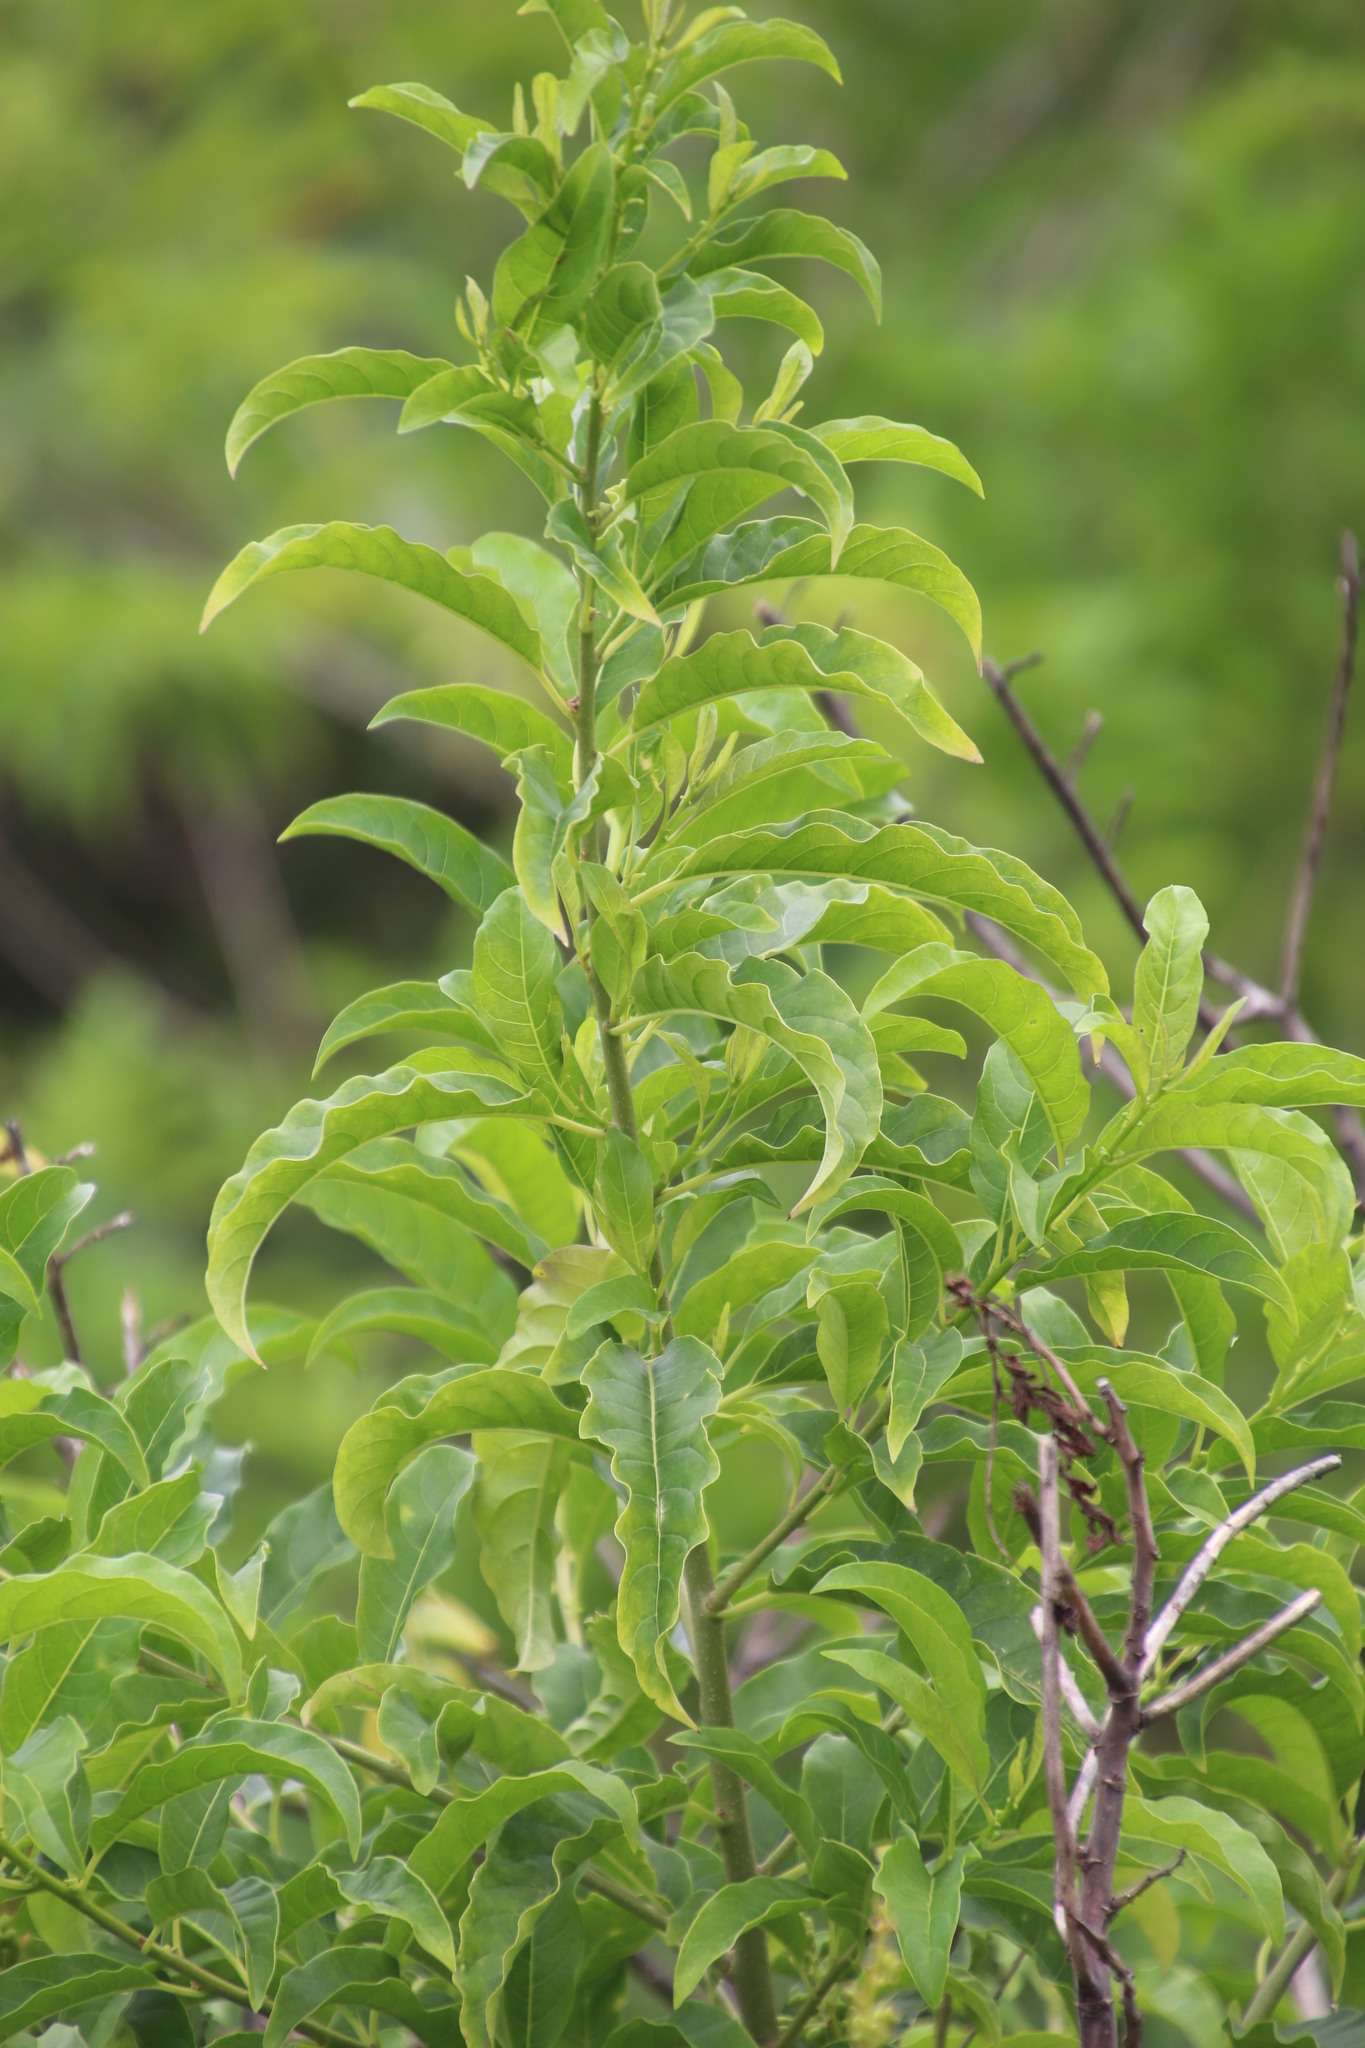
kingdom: Plantae
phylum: Tracheophyta
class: Magnoliopsida
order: Solanales
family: Solanaceae
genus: Cestrum
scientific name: Cestrum laevigatum
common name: Inkberry
